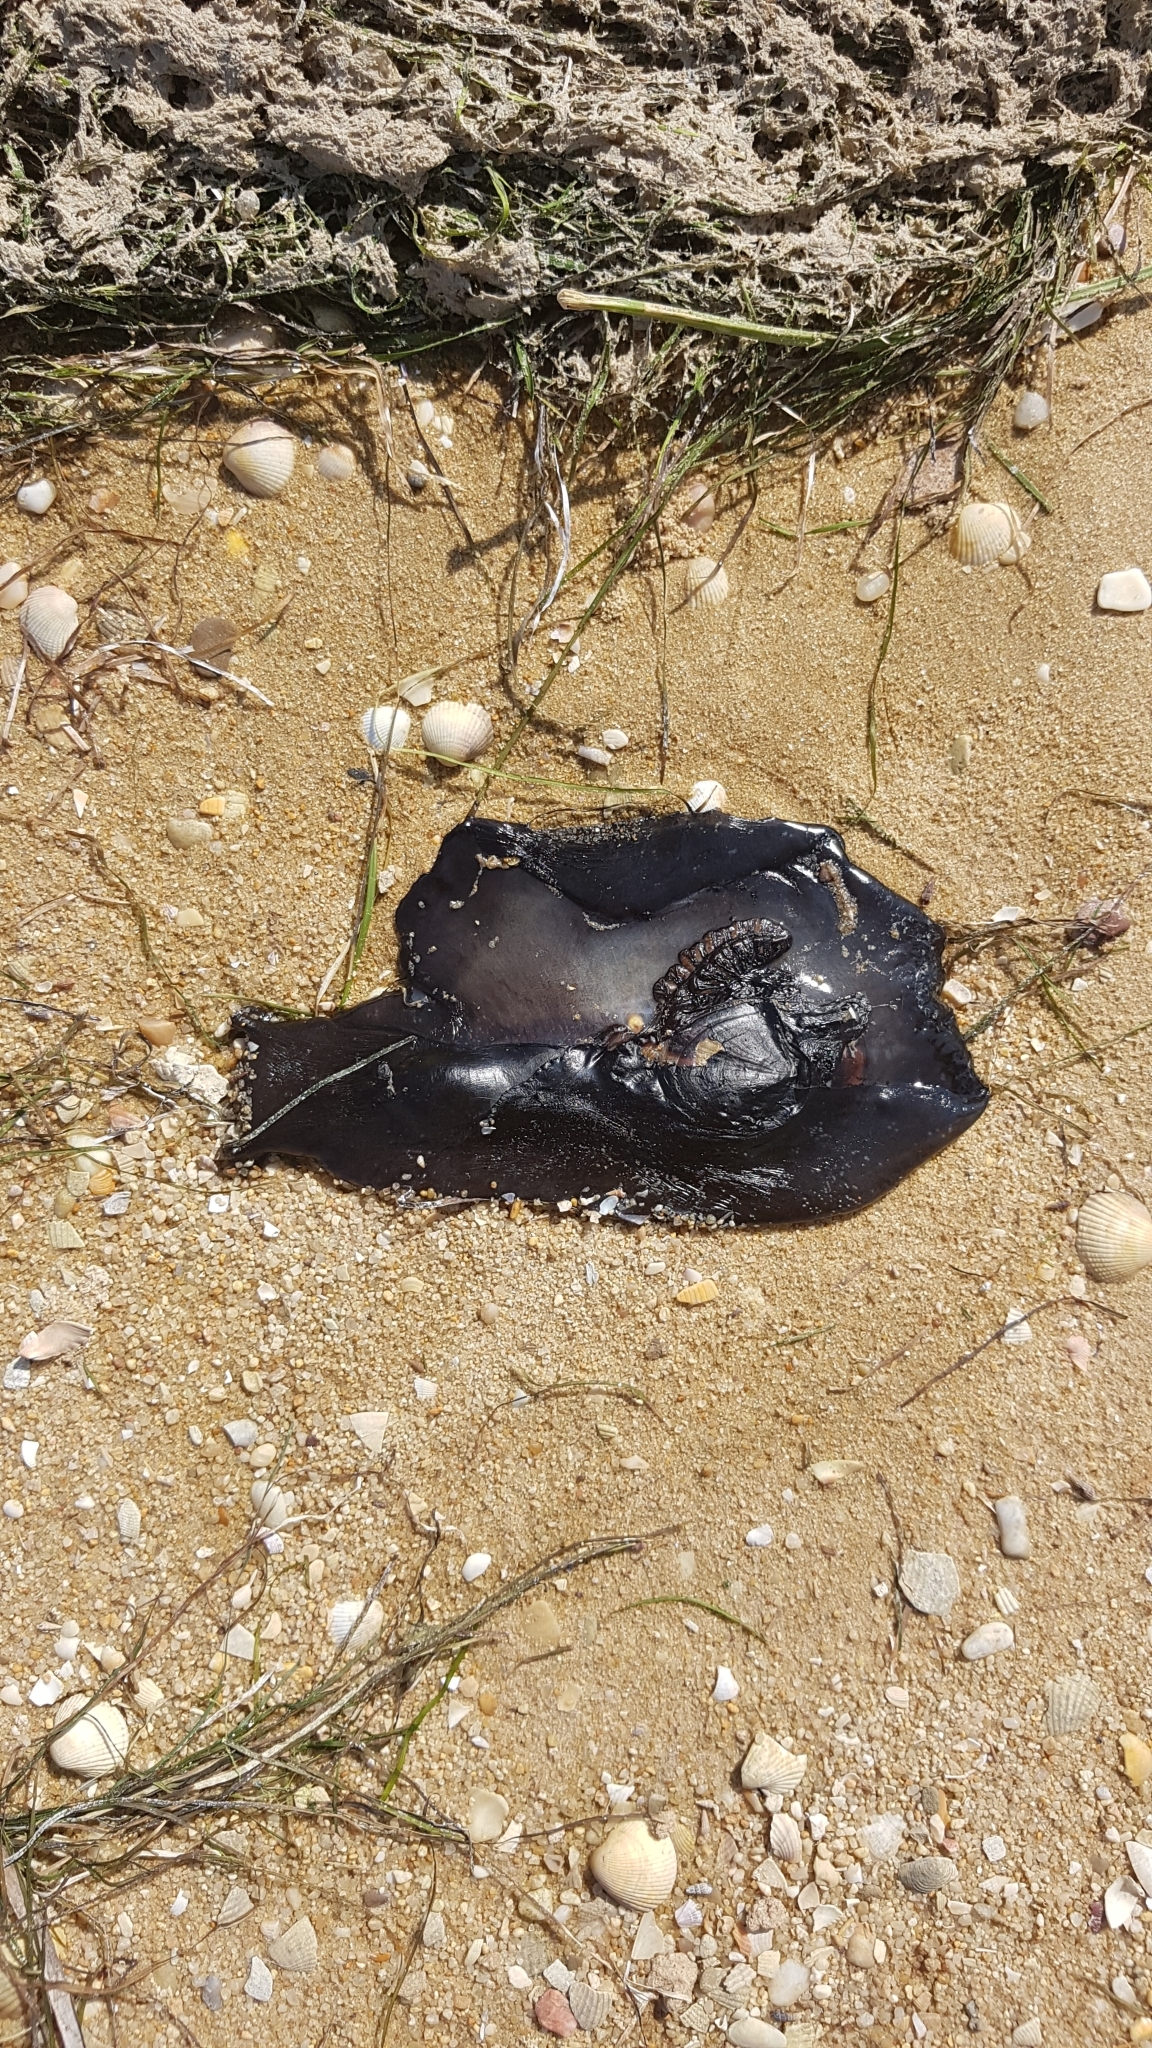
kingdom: Animalia
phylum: Mollusca
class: Gastropoda
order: Aplysiida
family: Aplysiidae
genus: Aplysia
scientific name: Aplysia fasciata
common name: Banded sea hare
